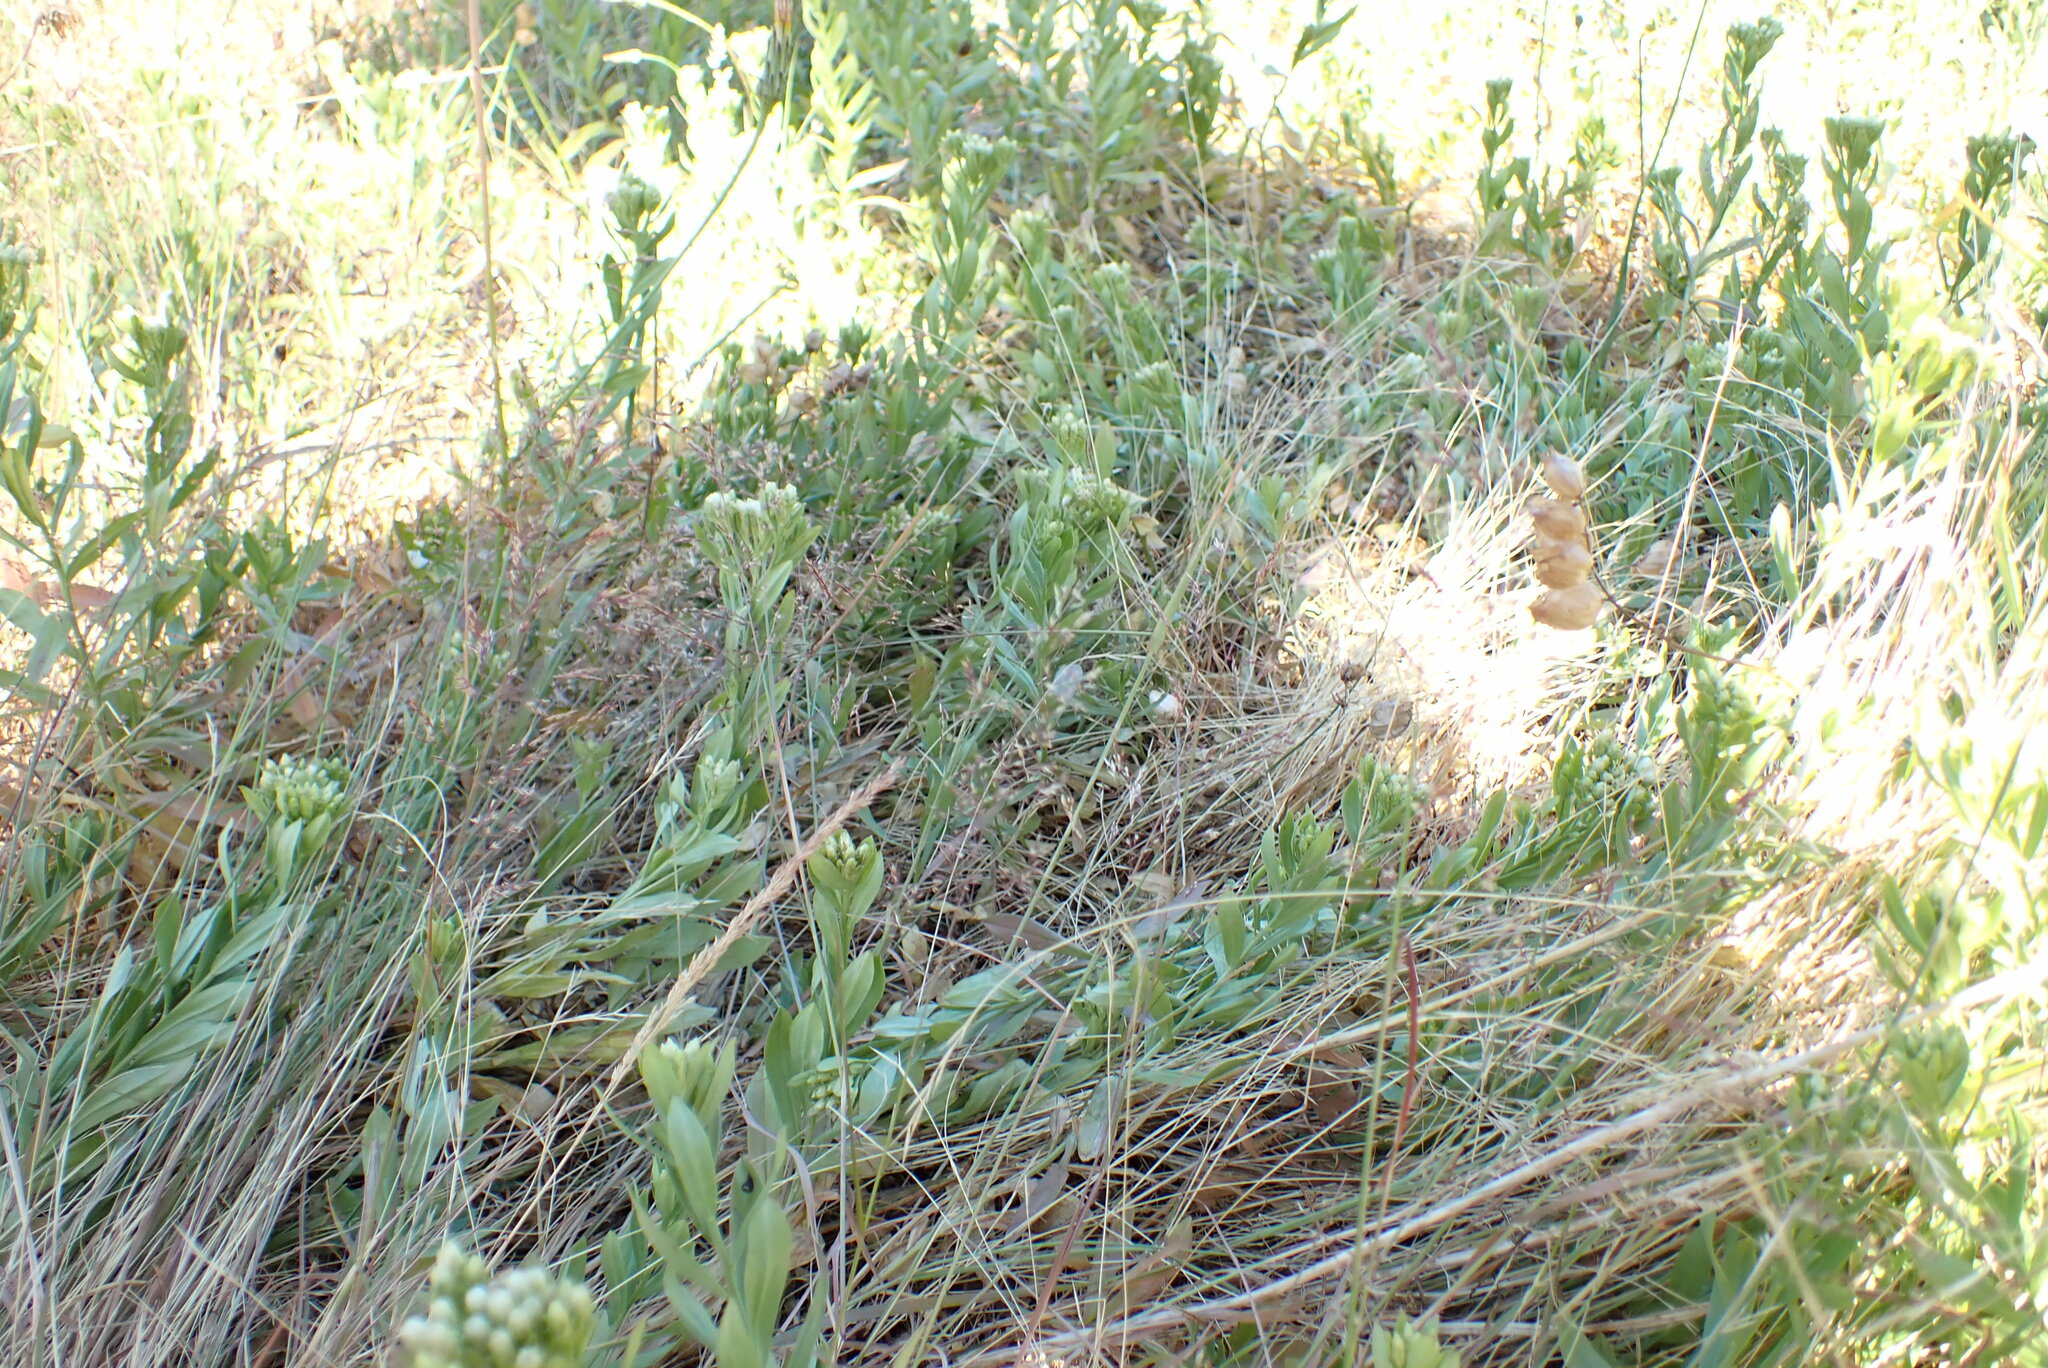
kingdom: Plantae
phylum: Tracheophyta
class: Magnoliopsida
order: Asterales
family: Asteraceae
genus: Sericocarpus
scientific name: Sericocarpus rigidus
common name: Columbia white-top aster
